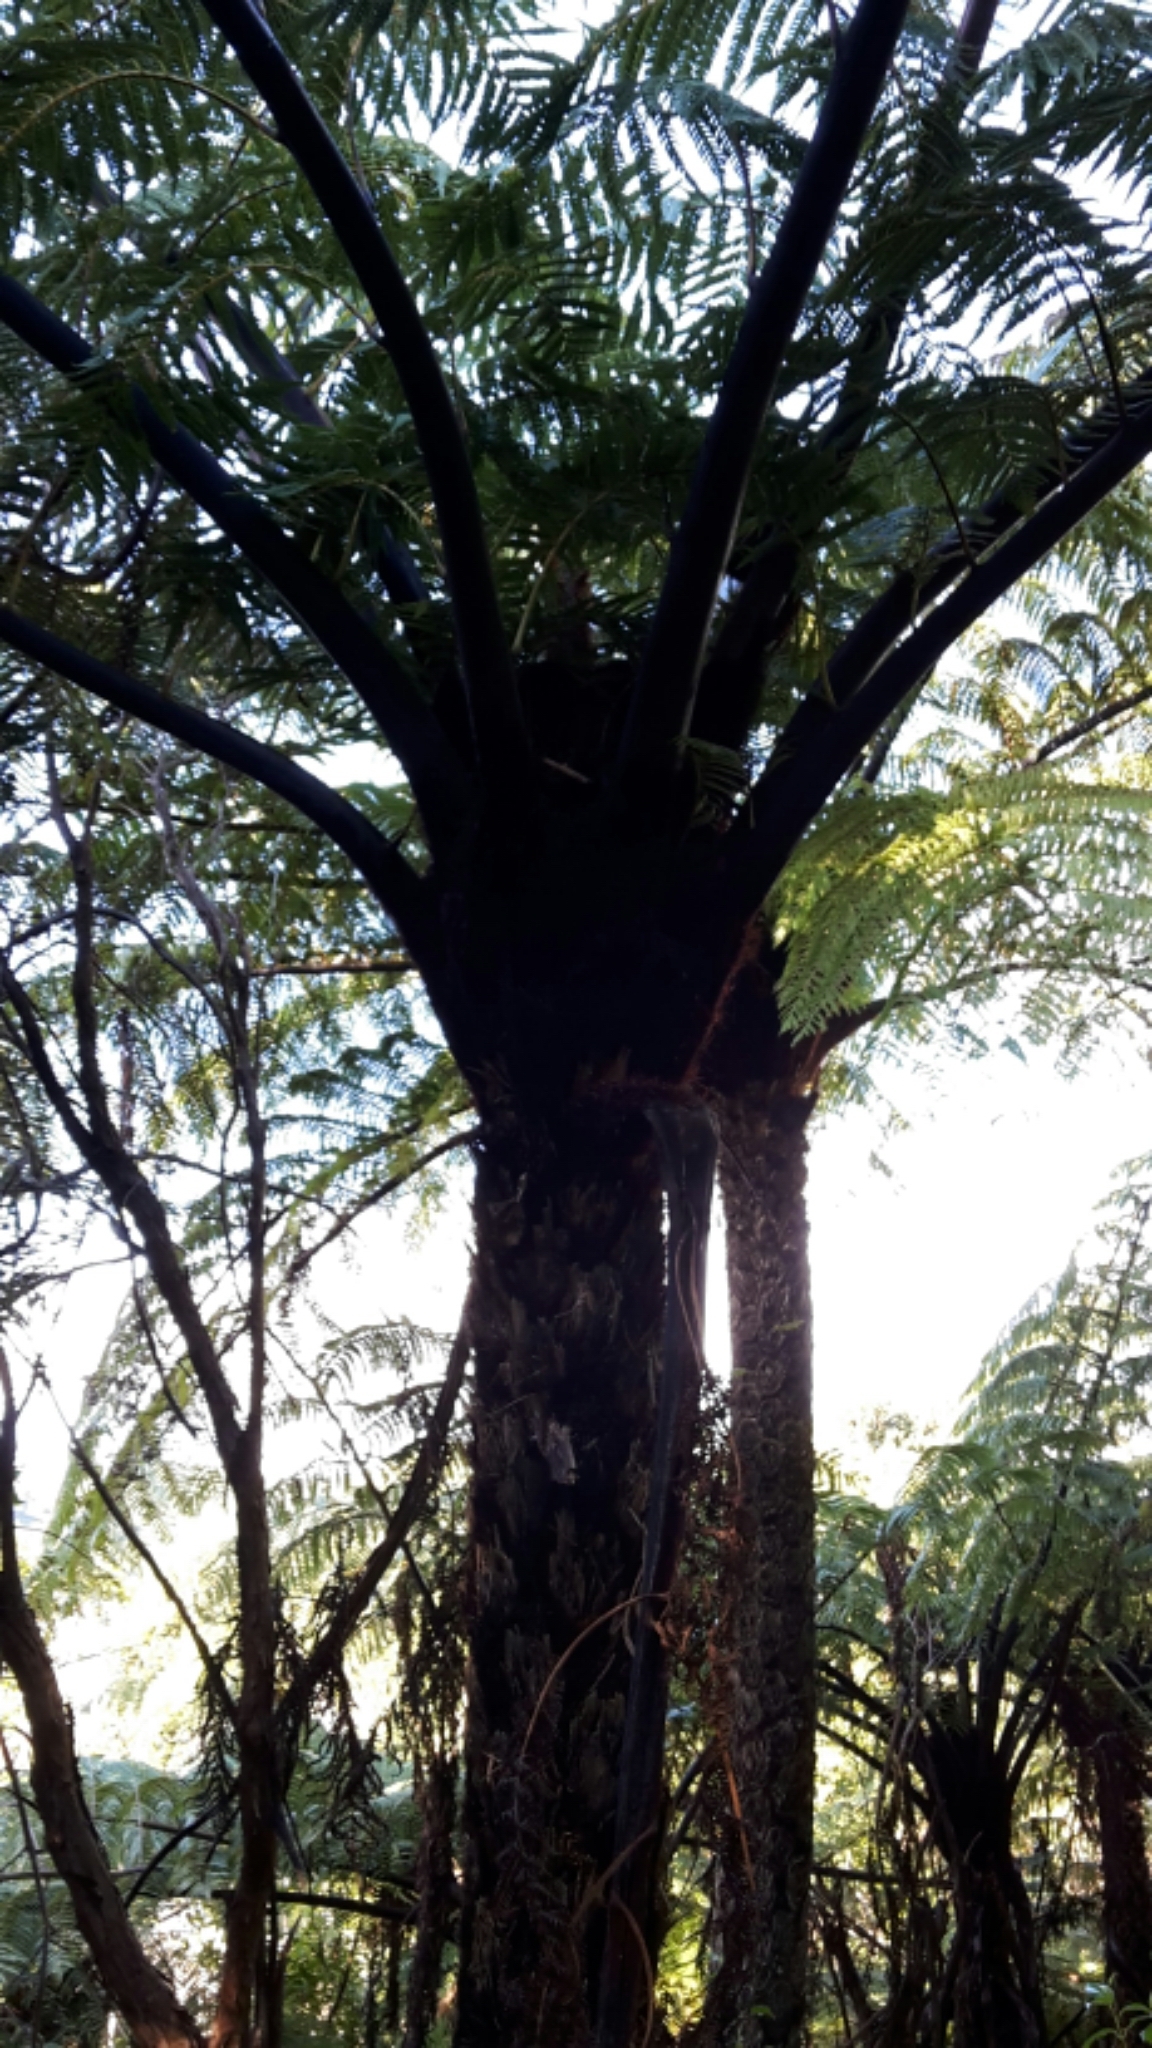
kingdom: Plantae
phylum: Tracheophyta
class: Polypodiopsida
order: Cyatheales
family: Cyatheaceae
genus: Sphaeropteris
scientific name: Sphaeropteris medullaris
